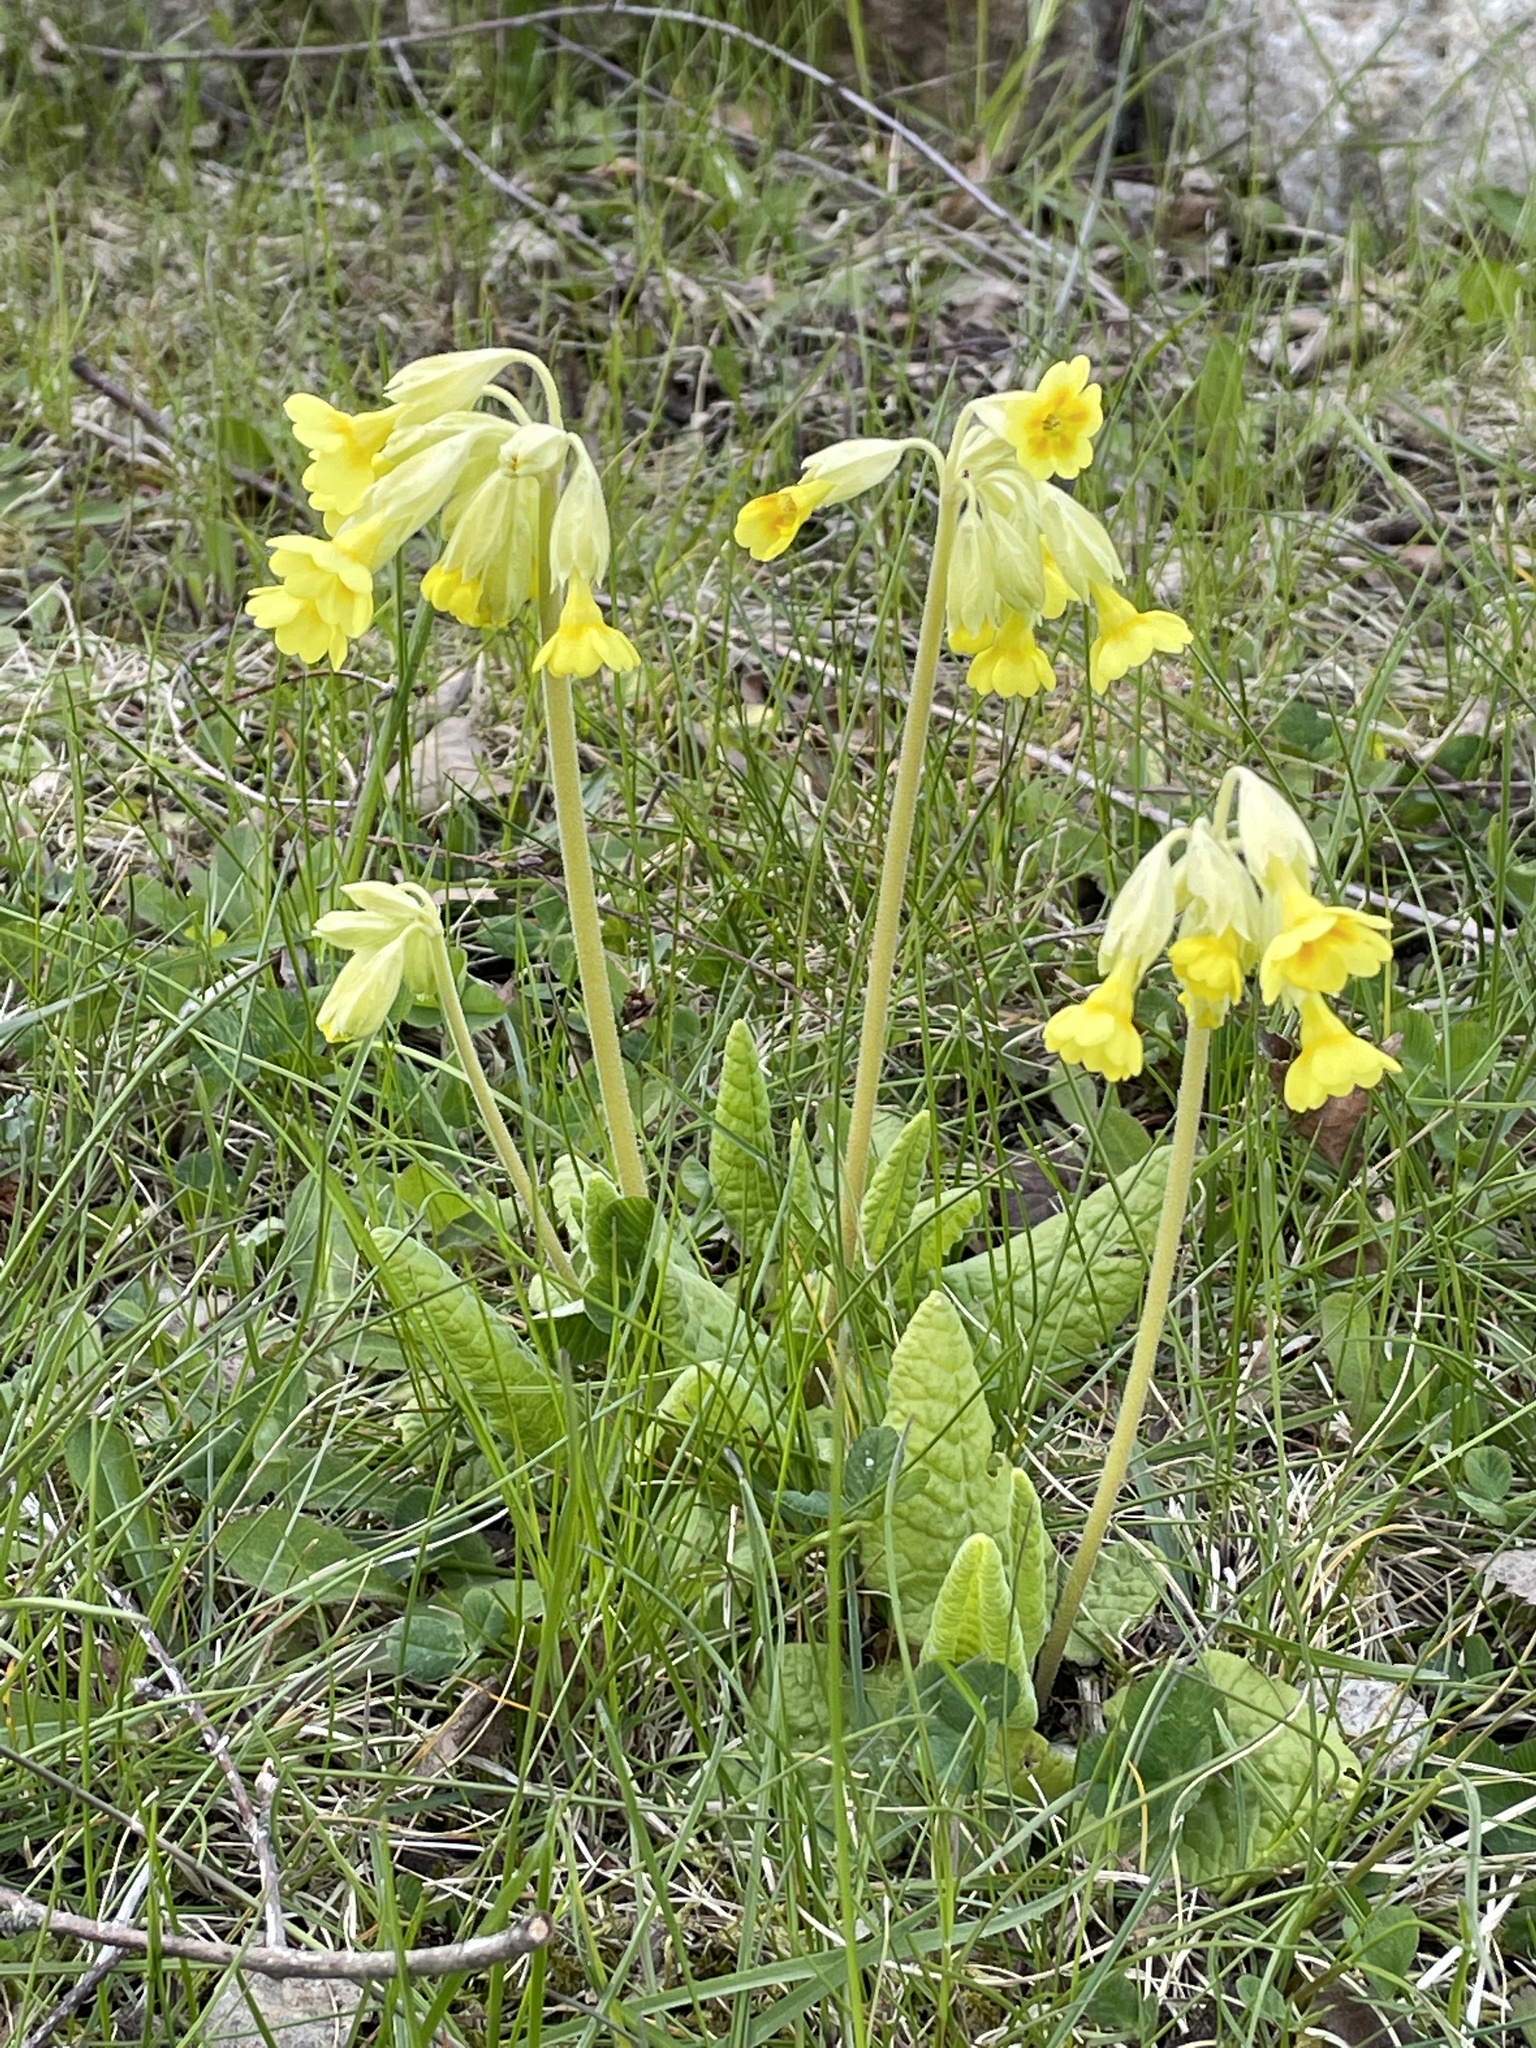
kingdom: Plantae
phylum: Tracheophyta
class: Magnoliopsida
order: Ericales
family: Primulaceae
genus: Primula
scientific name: Primula veris
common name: Cowslip
